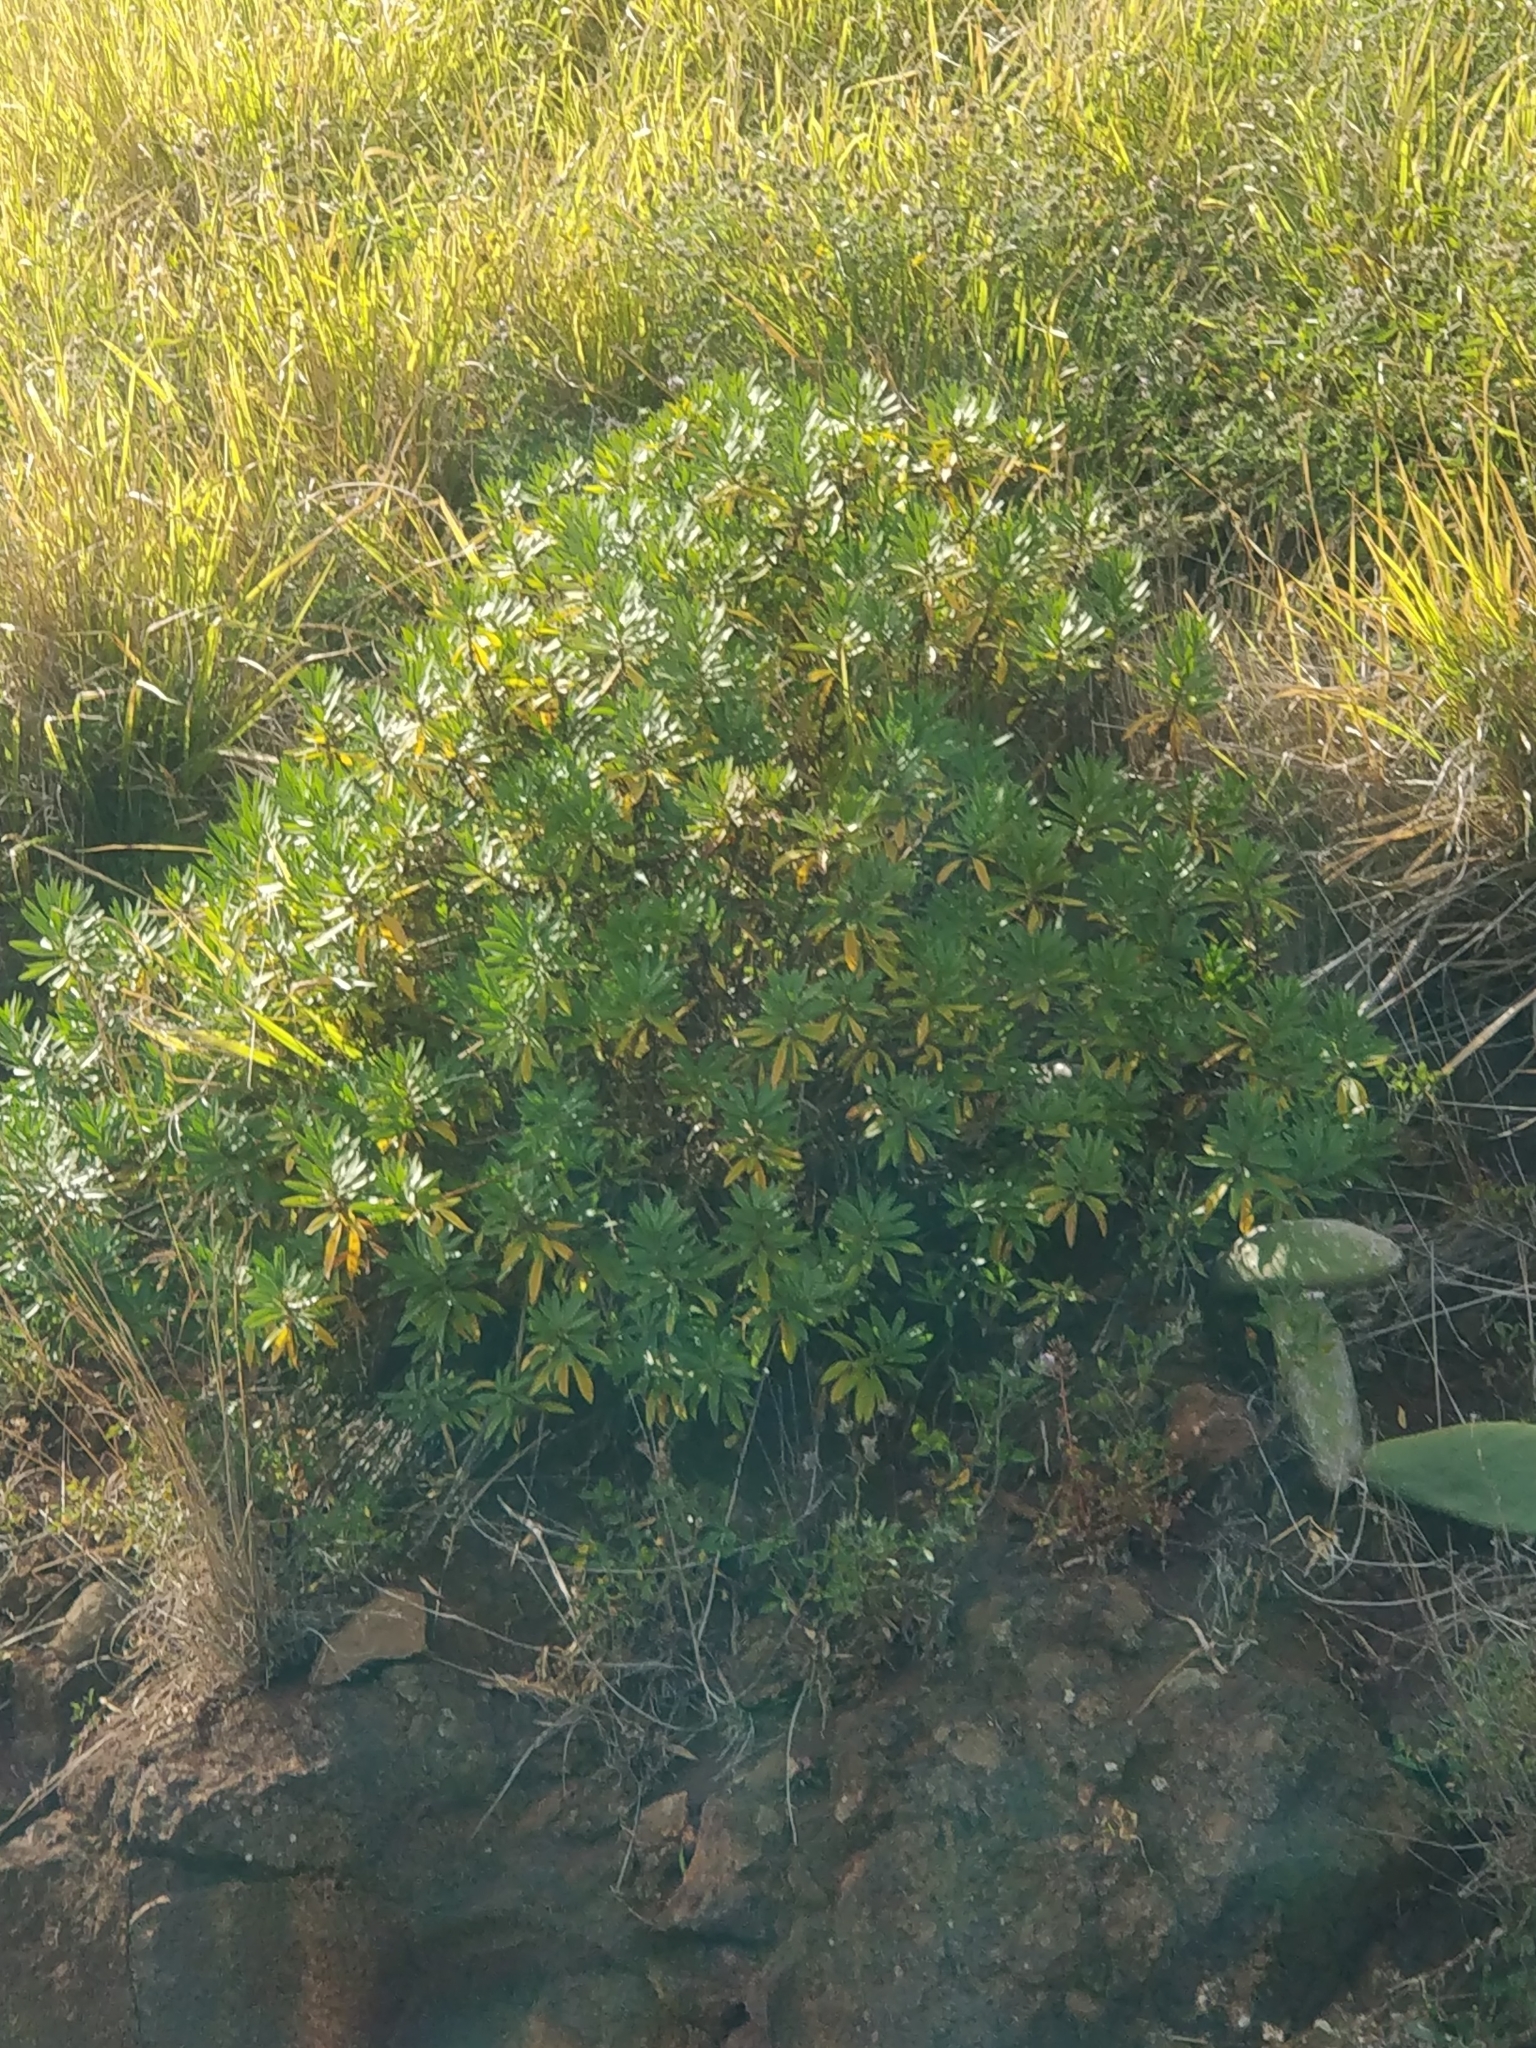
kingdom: Plantae
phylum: Tracheophyta
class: Magnoliopsida
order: Lamiales
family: Plantaginaceae
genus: Globularia
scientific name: Globularia salicina
